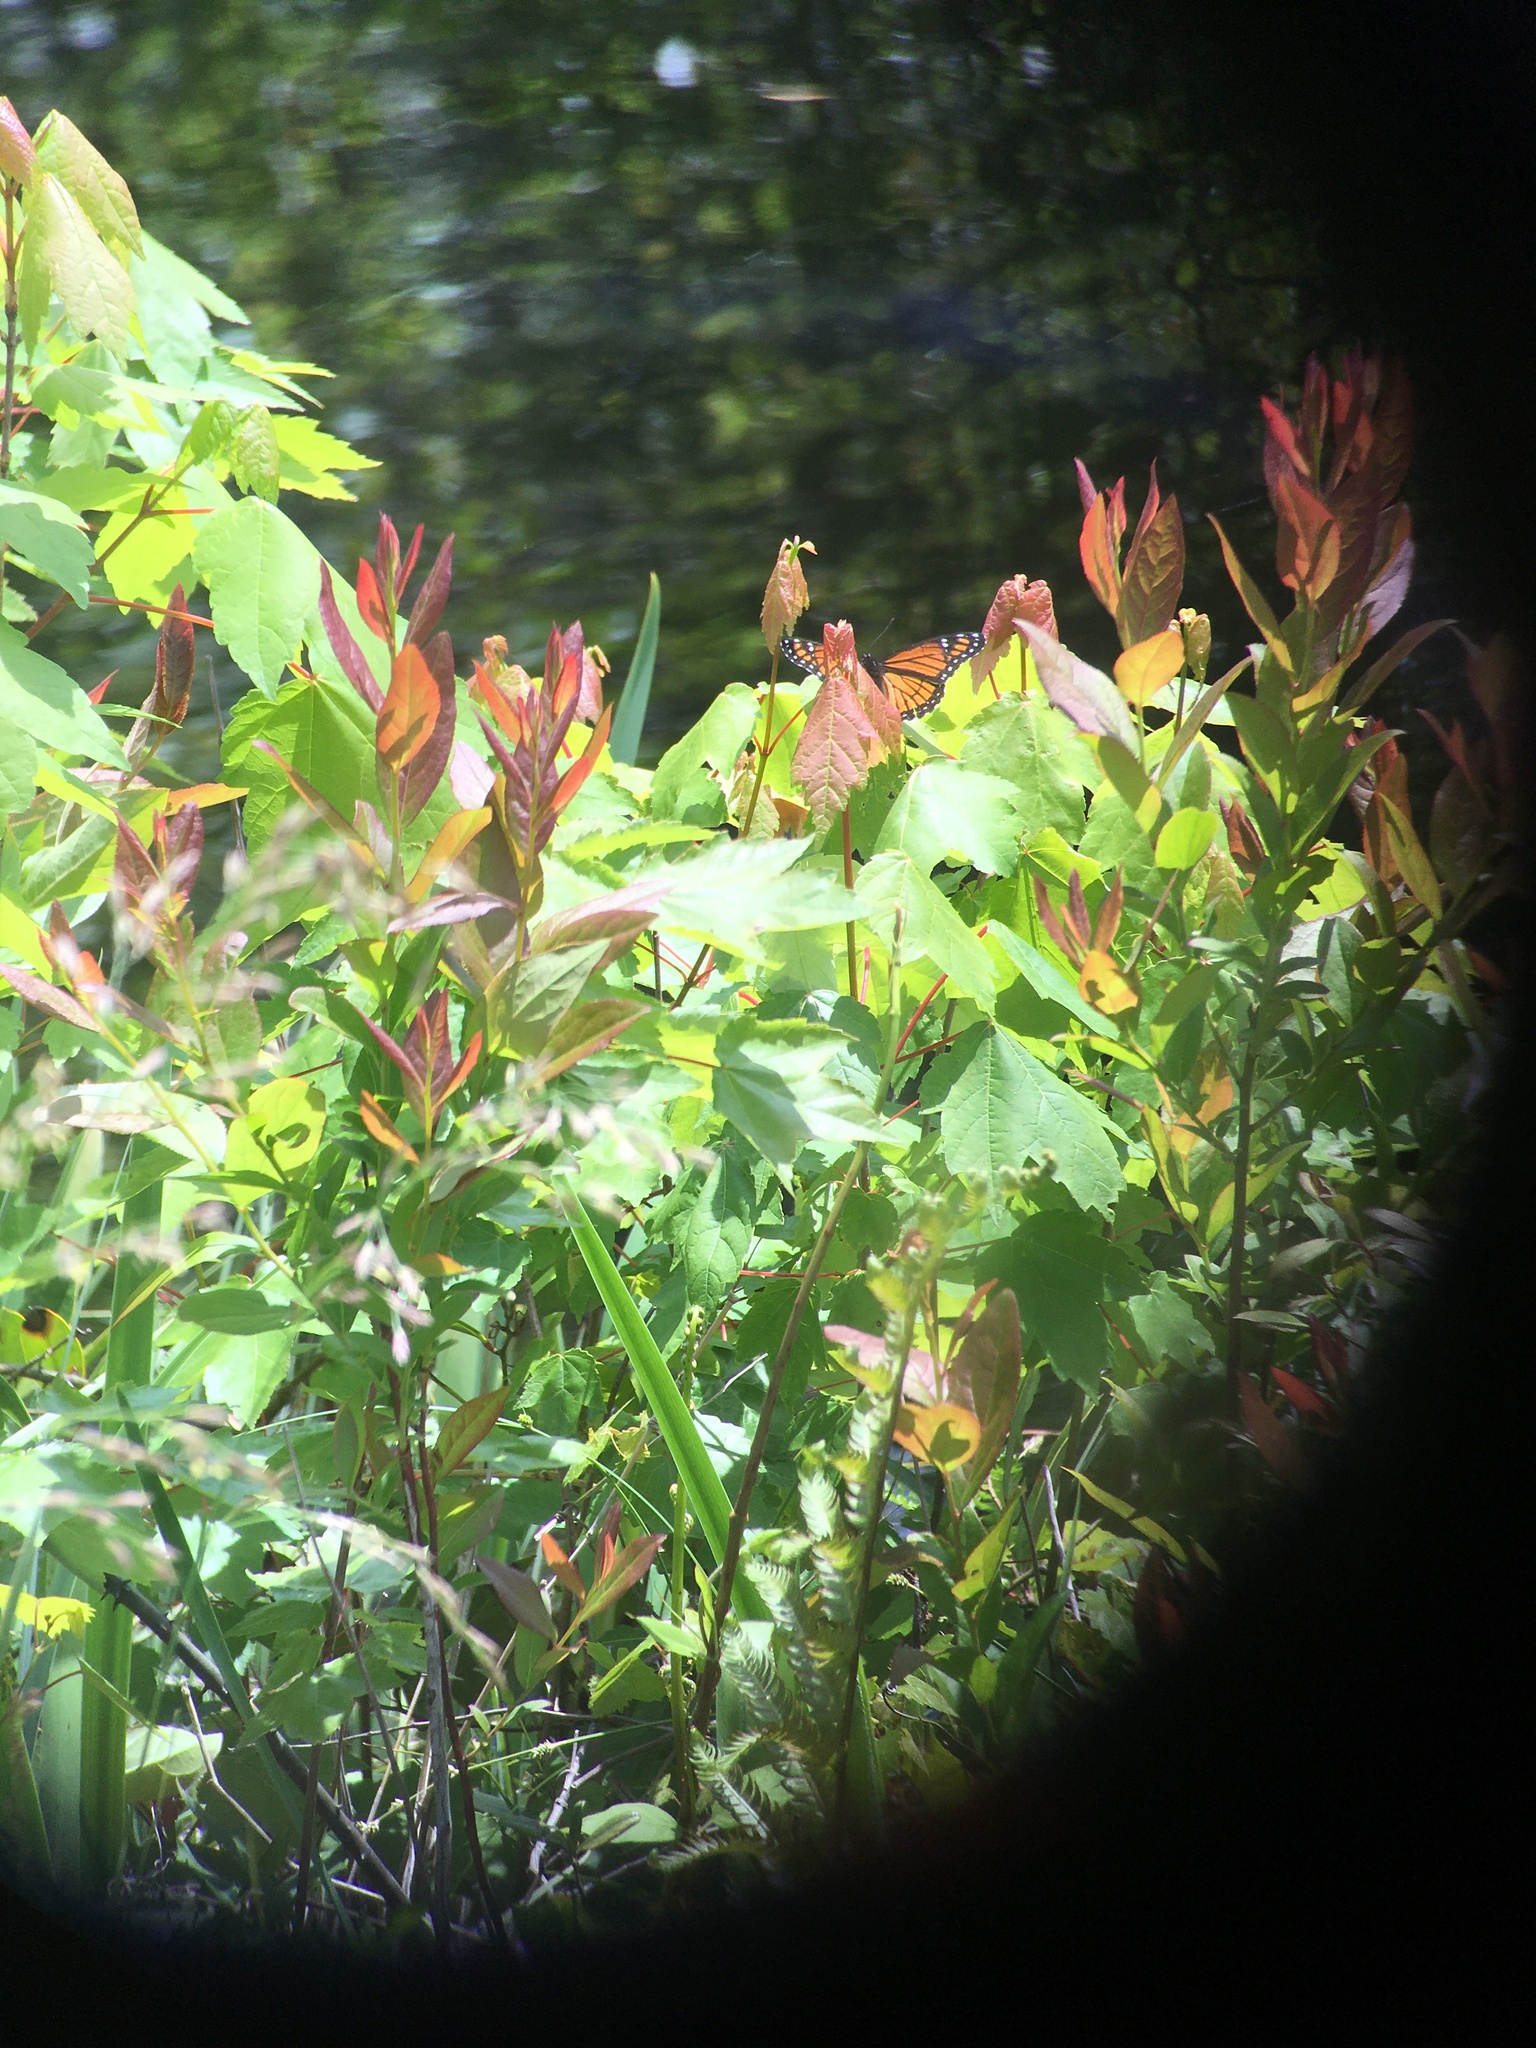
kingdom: Animalia
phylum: Arthropoda
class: Insecta
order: Lepidoptera
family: Nymphalidae
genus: Limenitis
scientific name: Limenitis archippus
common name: Viceroy
